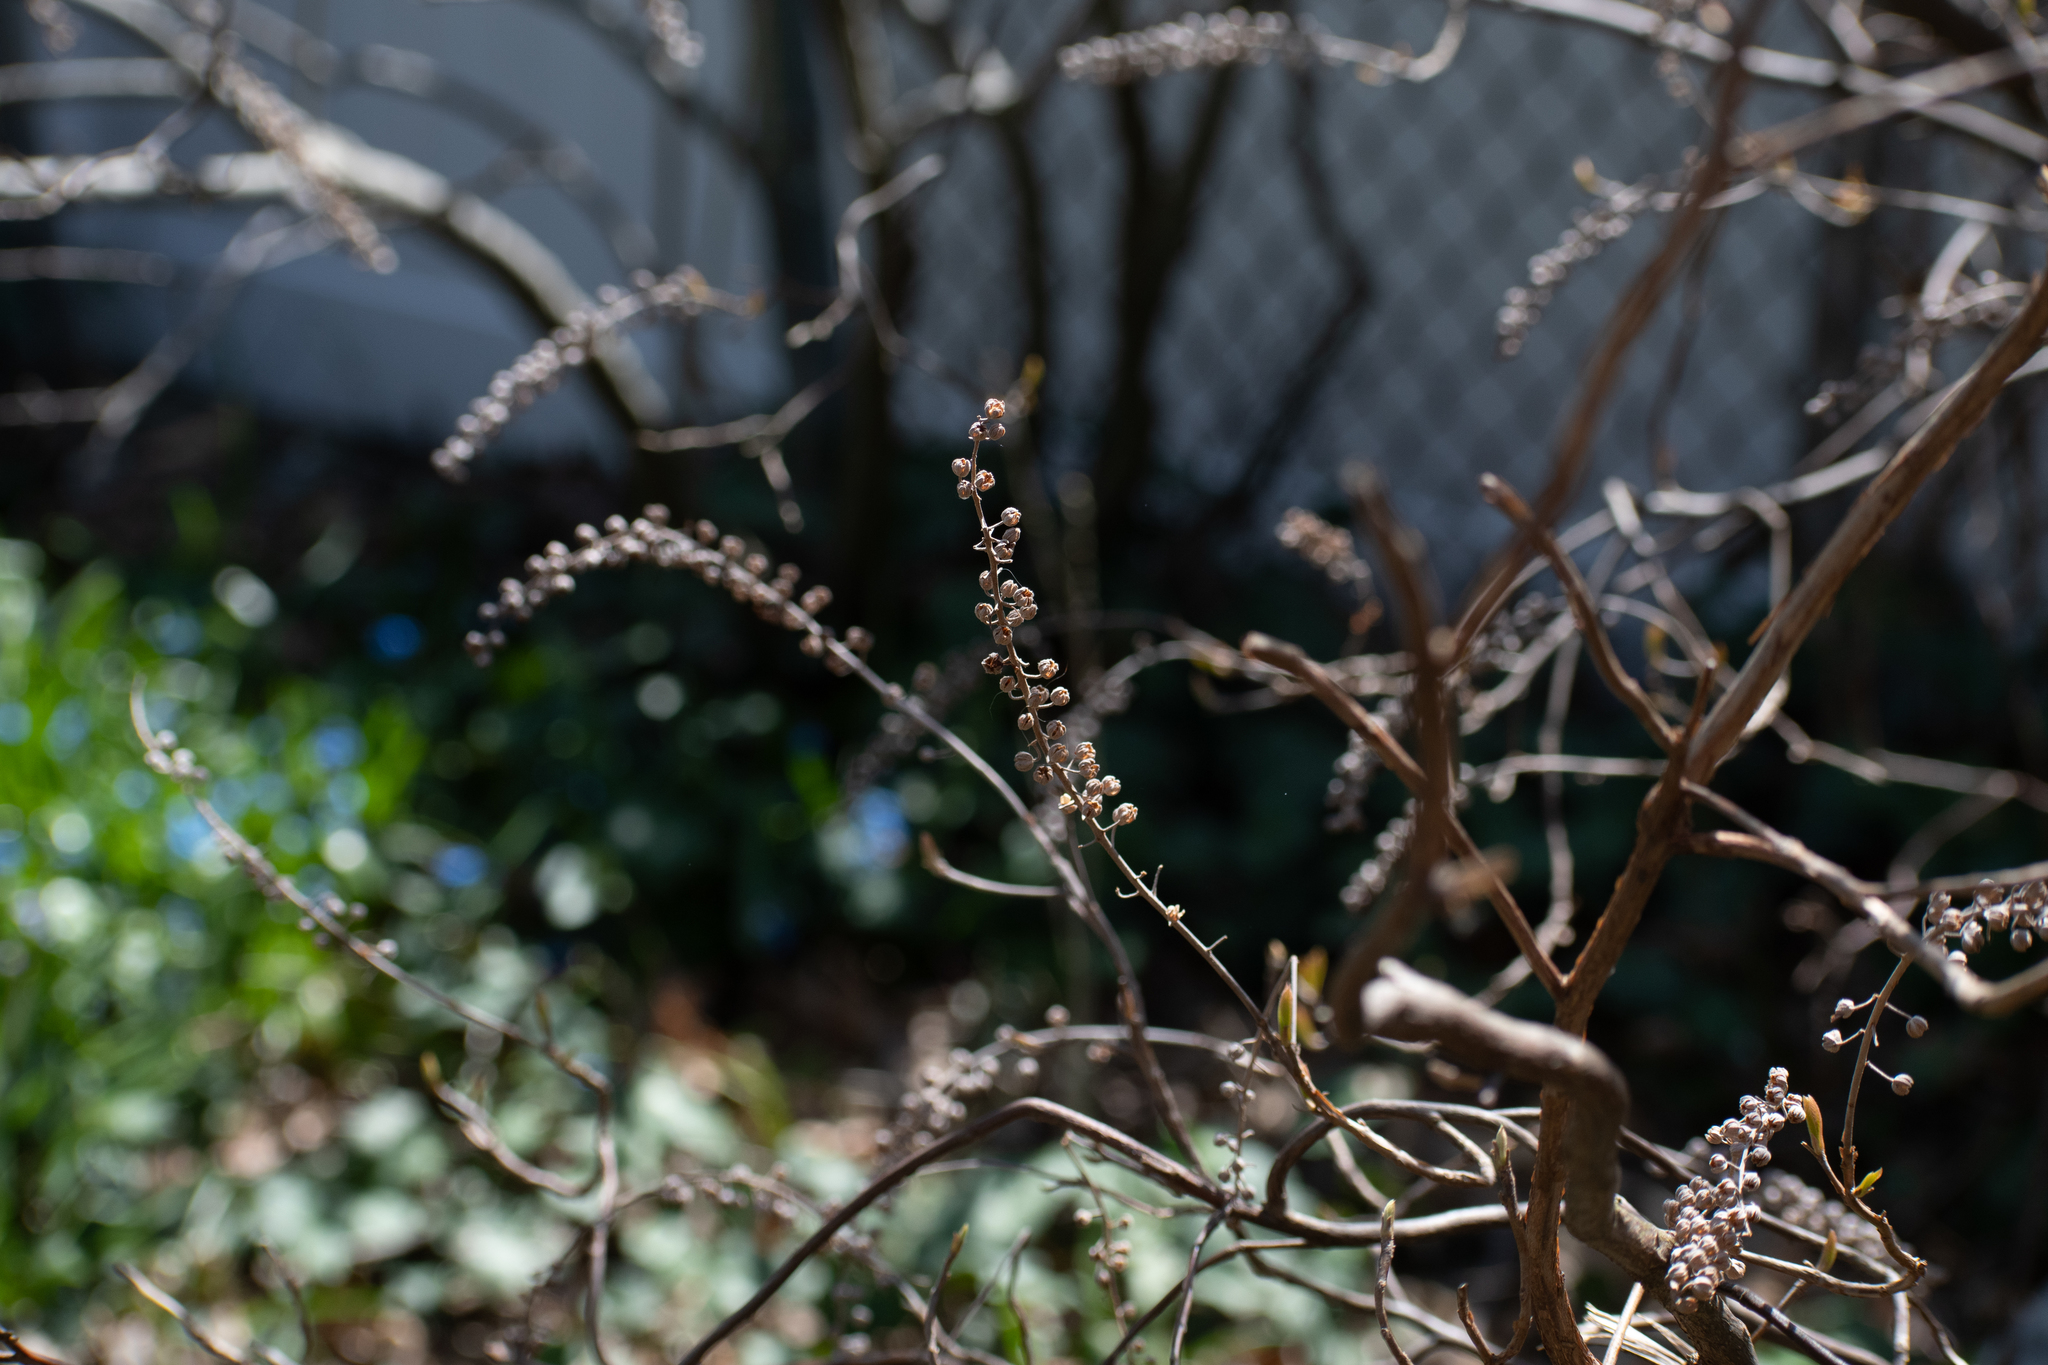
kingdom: Plantae
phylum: Tracheophyta
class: Magnoliopsida
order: Ericales
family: Clethraceae
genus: Clethra
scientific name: Clethra alnifolia
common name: Sweet pepperbush
